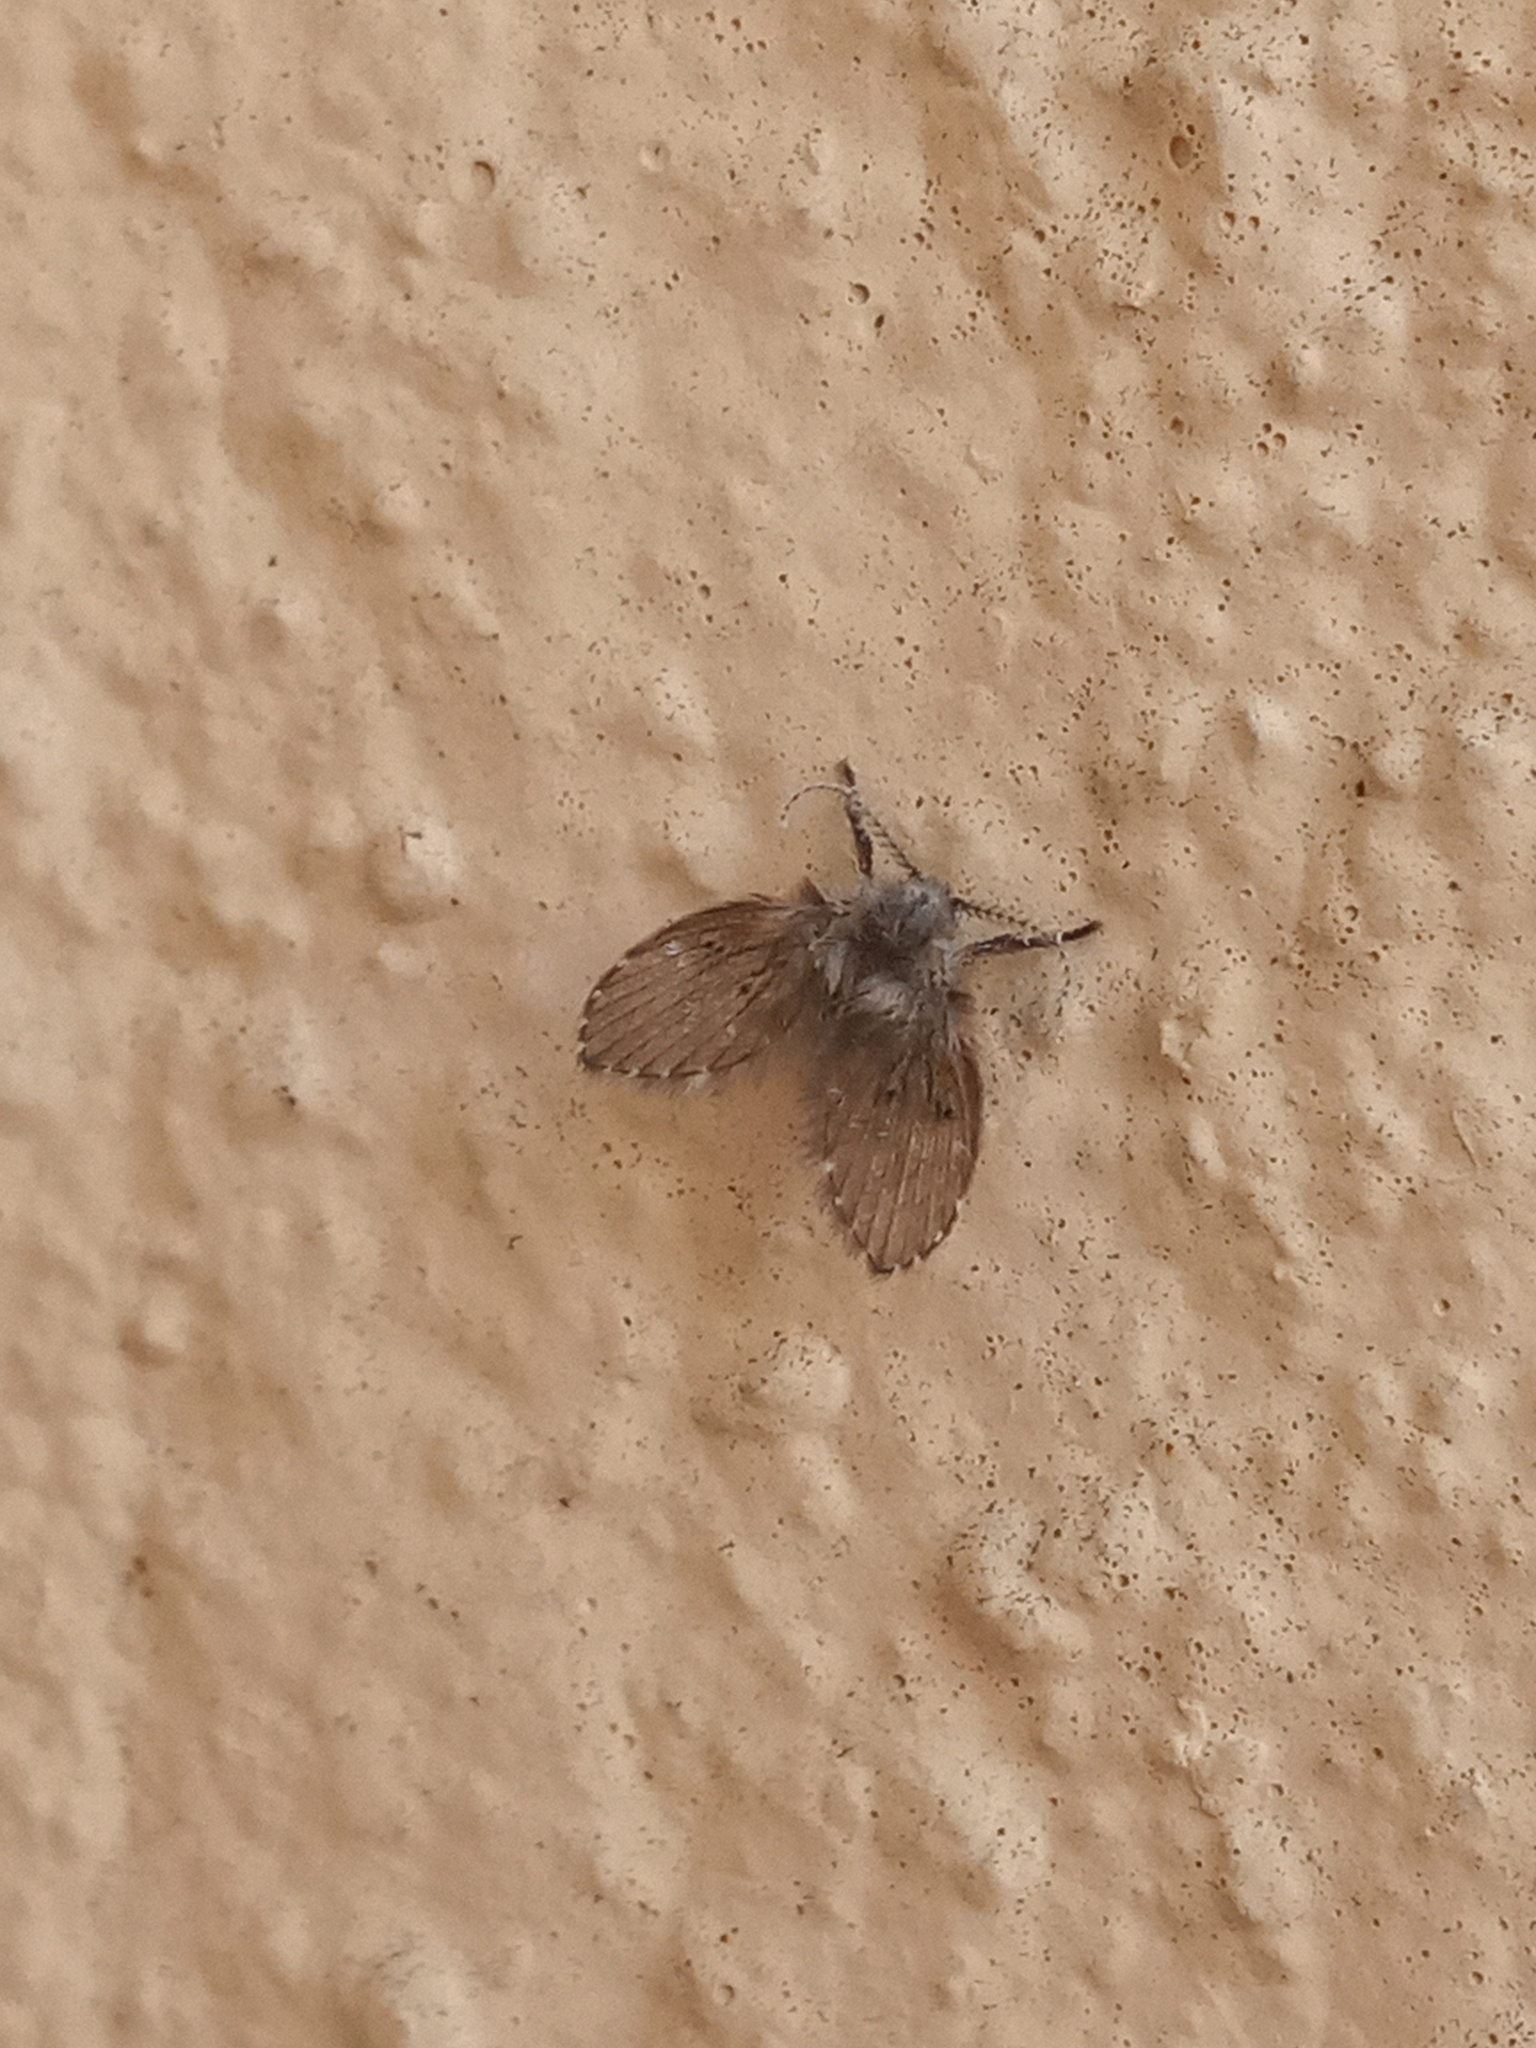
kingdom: Animalia
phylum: Arthropoda
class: Insecta
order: Diptera
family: Psychodidae
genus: Clogmia
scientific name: Clogmia albipunctatus
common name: White-spotted moth fly
